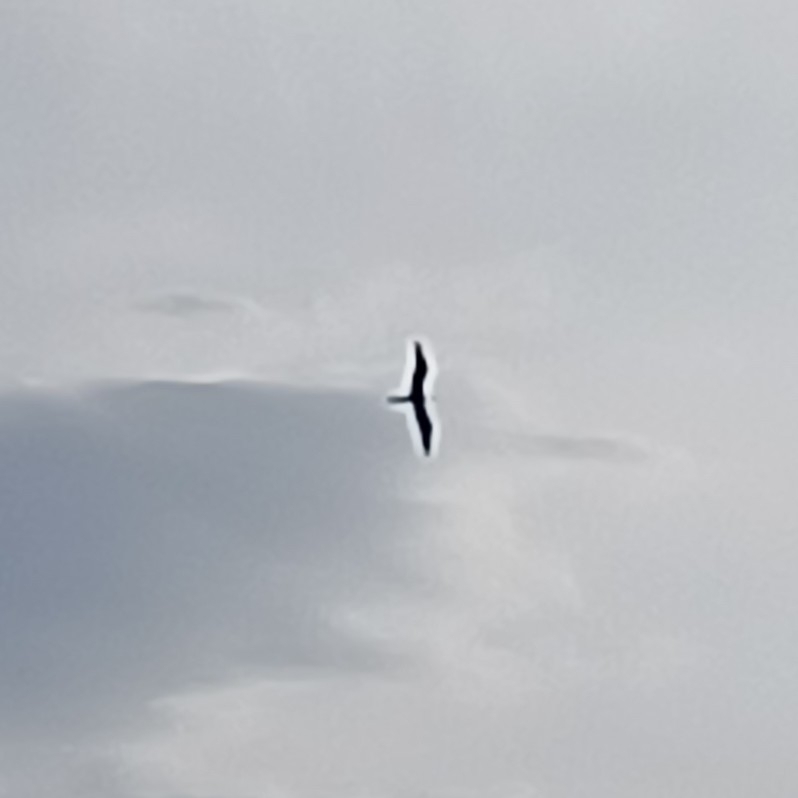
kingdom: Animalia
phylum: Chordata
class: Aves
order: Suliformes
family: Fregatidae
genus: Fregata
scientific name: Fregata magnificens
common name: Magnificent frigatebird
